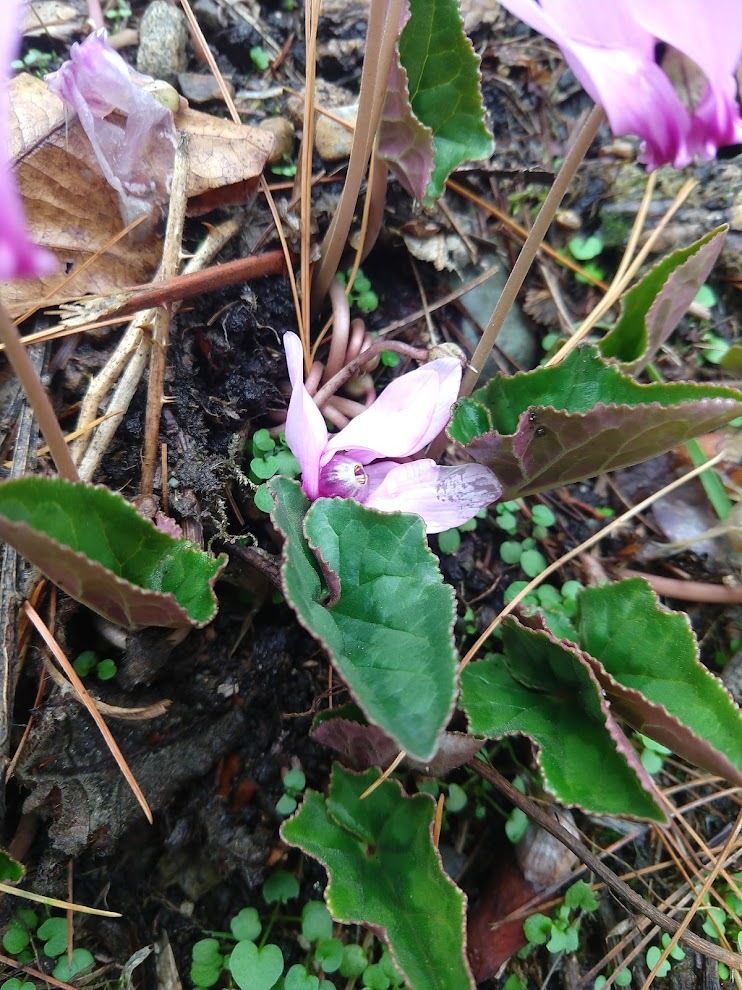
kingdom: Plantae
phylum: Tracheophyta
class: Magnoliopsida
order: Ericales
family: Primulaceae
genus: Cyclamen
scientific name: Cyclamen hederifolium
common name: Sowbread
